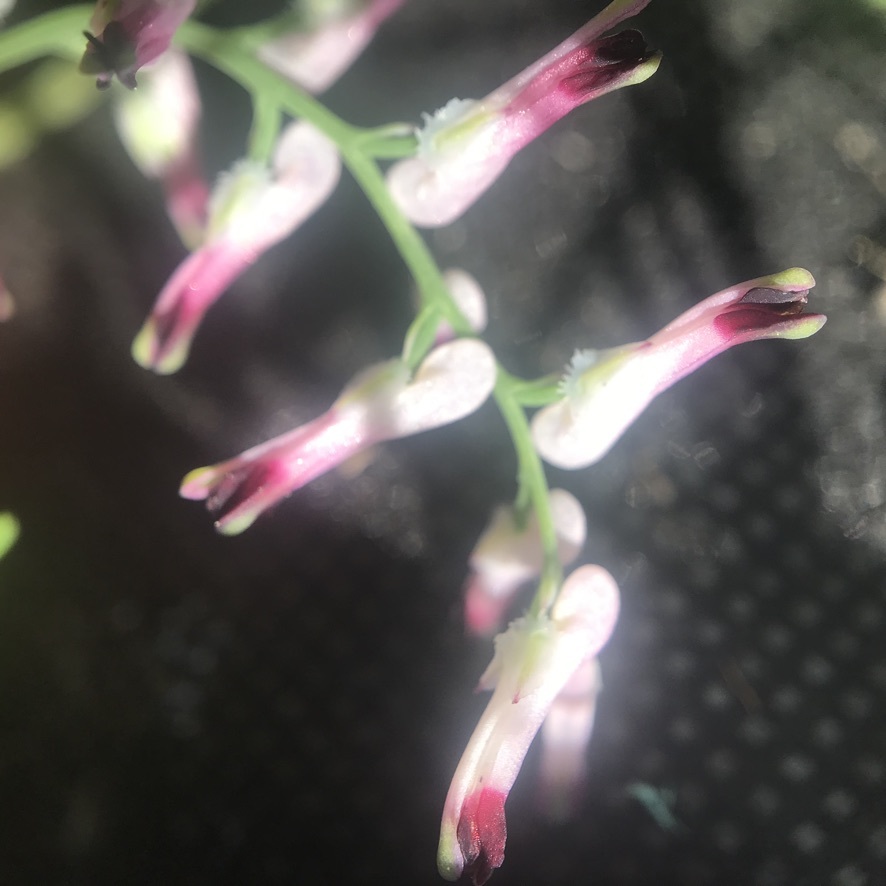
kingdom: Plantae
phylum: Tracheophyta
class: Magnoliopsida
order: Ranunculales
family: Papaveraceae
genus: Fumaria
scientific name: Fumaria muralis
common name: Common ramping-fumitory
